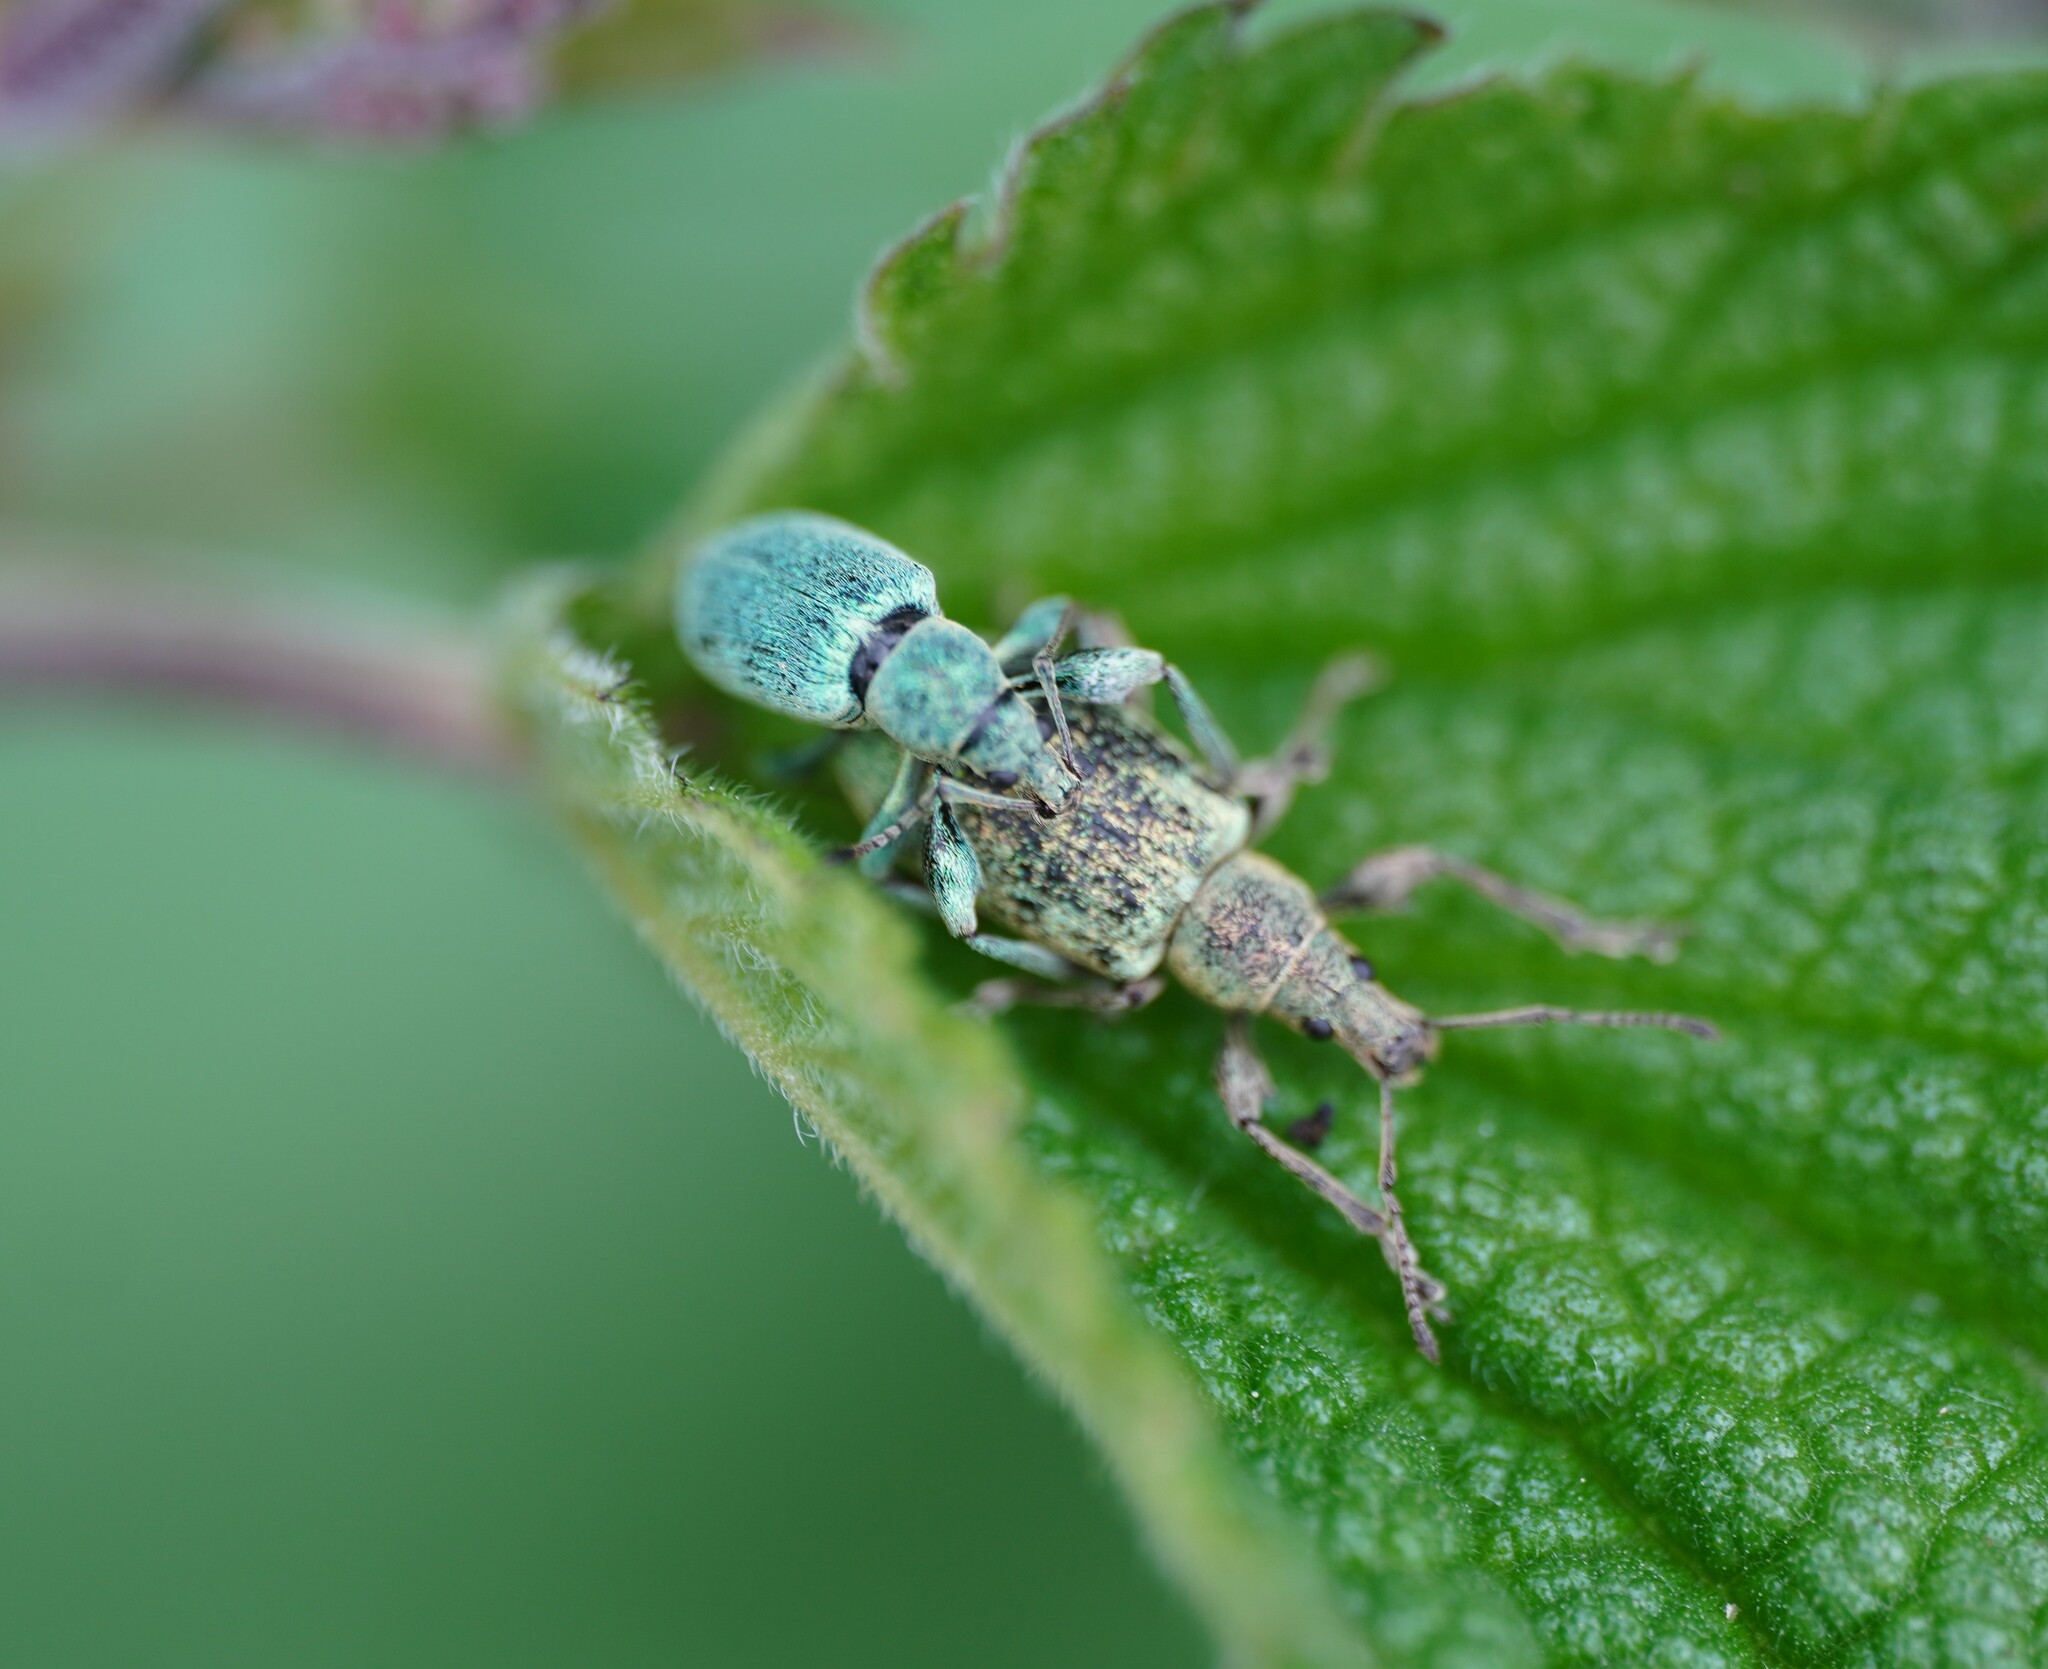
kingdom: Animalia
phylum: Arthropoda
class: Insecta
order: Coleoptera
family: Curculionidae
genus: Phyllobius
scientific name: Phyllobius pomaceus
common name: Green nettle weevil
